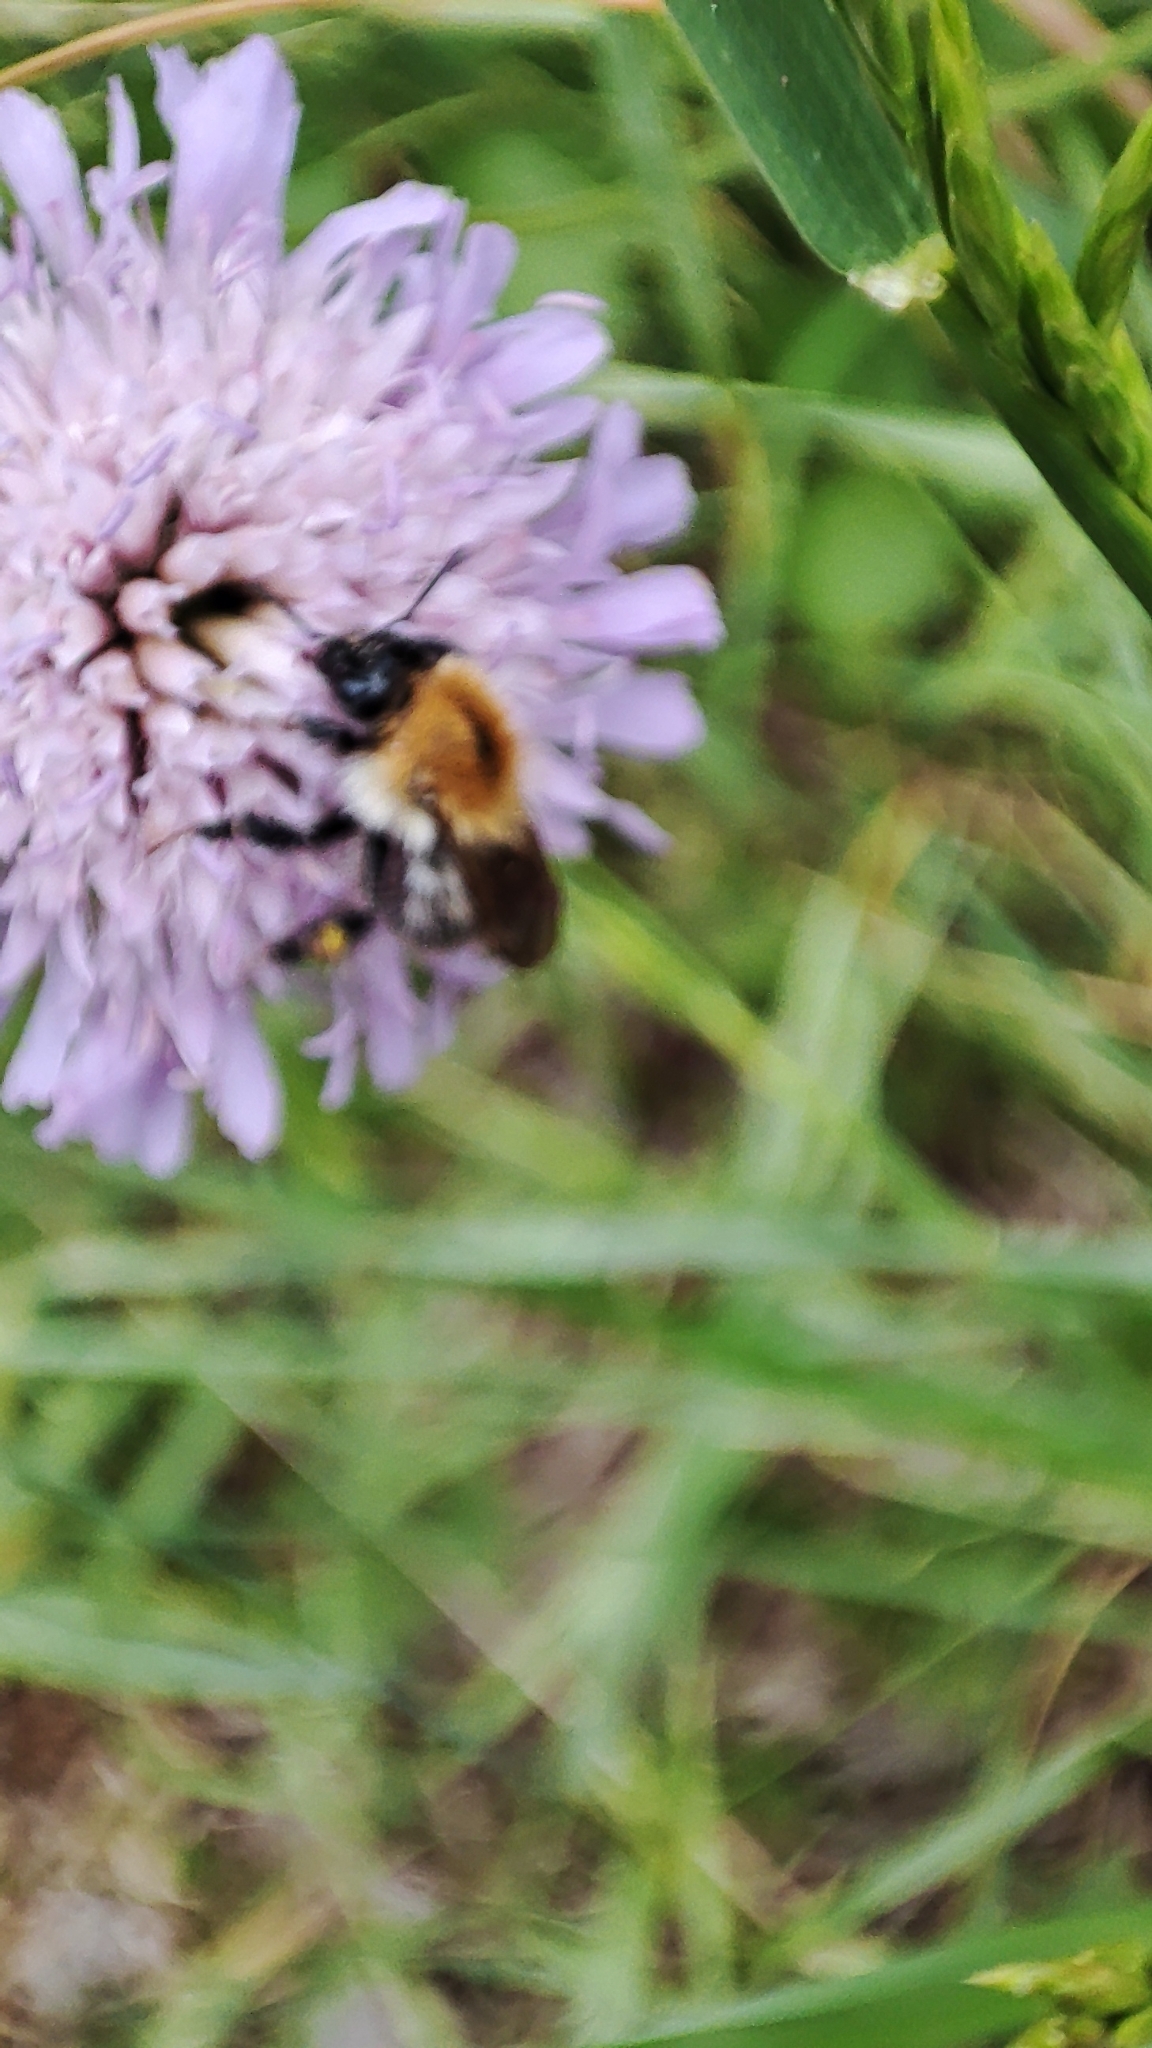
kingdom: Animalia
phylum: Arthropoda
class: Insecta
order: Hymenoptera
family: Apidae
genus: Bombus
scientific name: Bombus pascuorum
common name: Common carder bee
